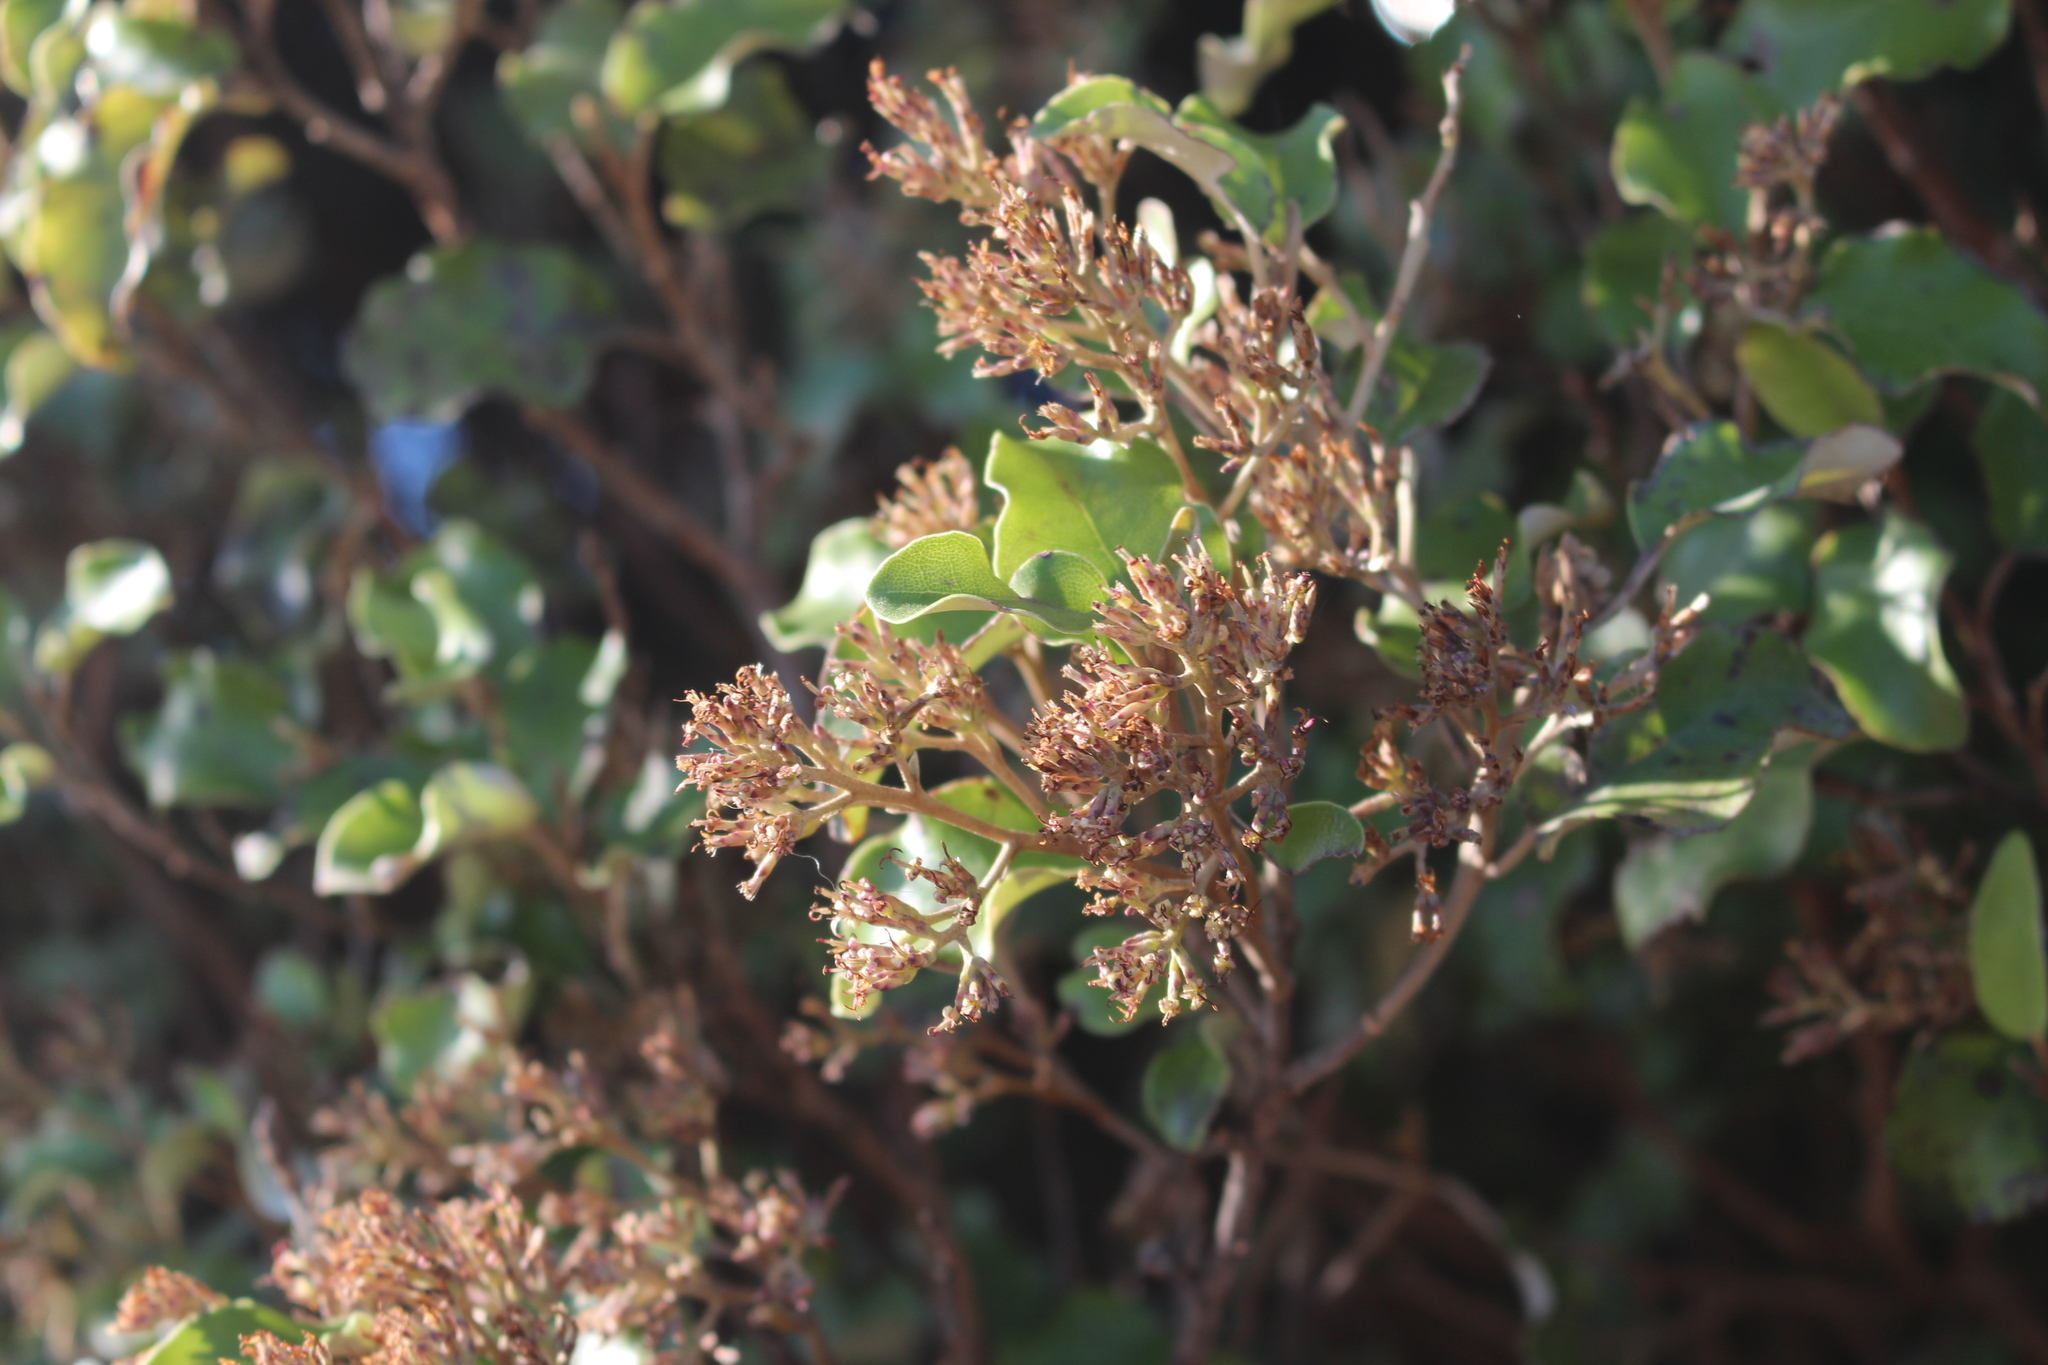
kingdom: Plantae
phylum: Tracheophyta
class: Magnoliopsida
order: Asterales
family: Asteraceae
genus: Olearia
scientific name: Olearia paniculata
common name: Akiraho
